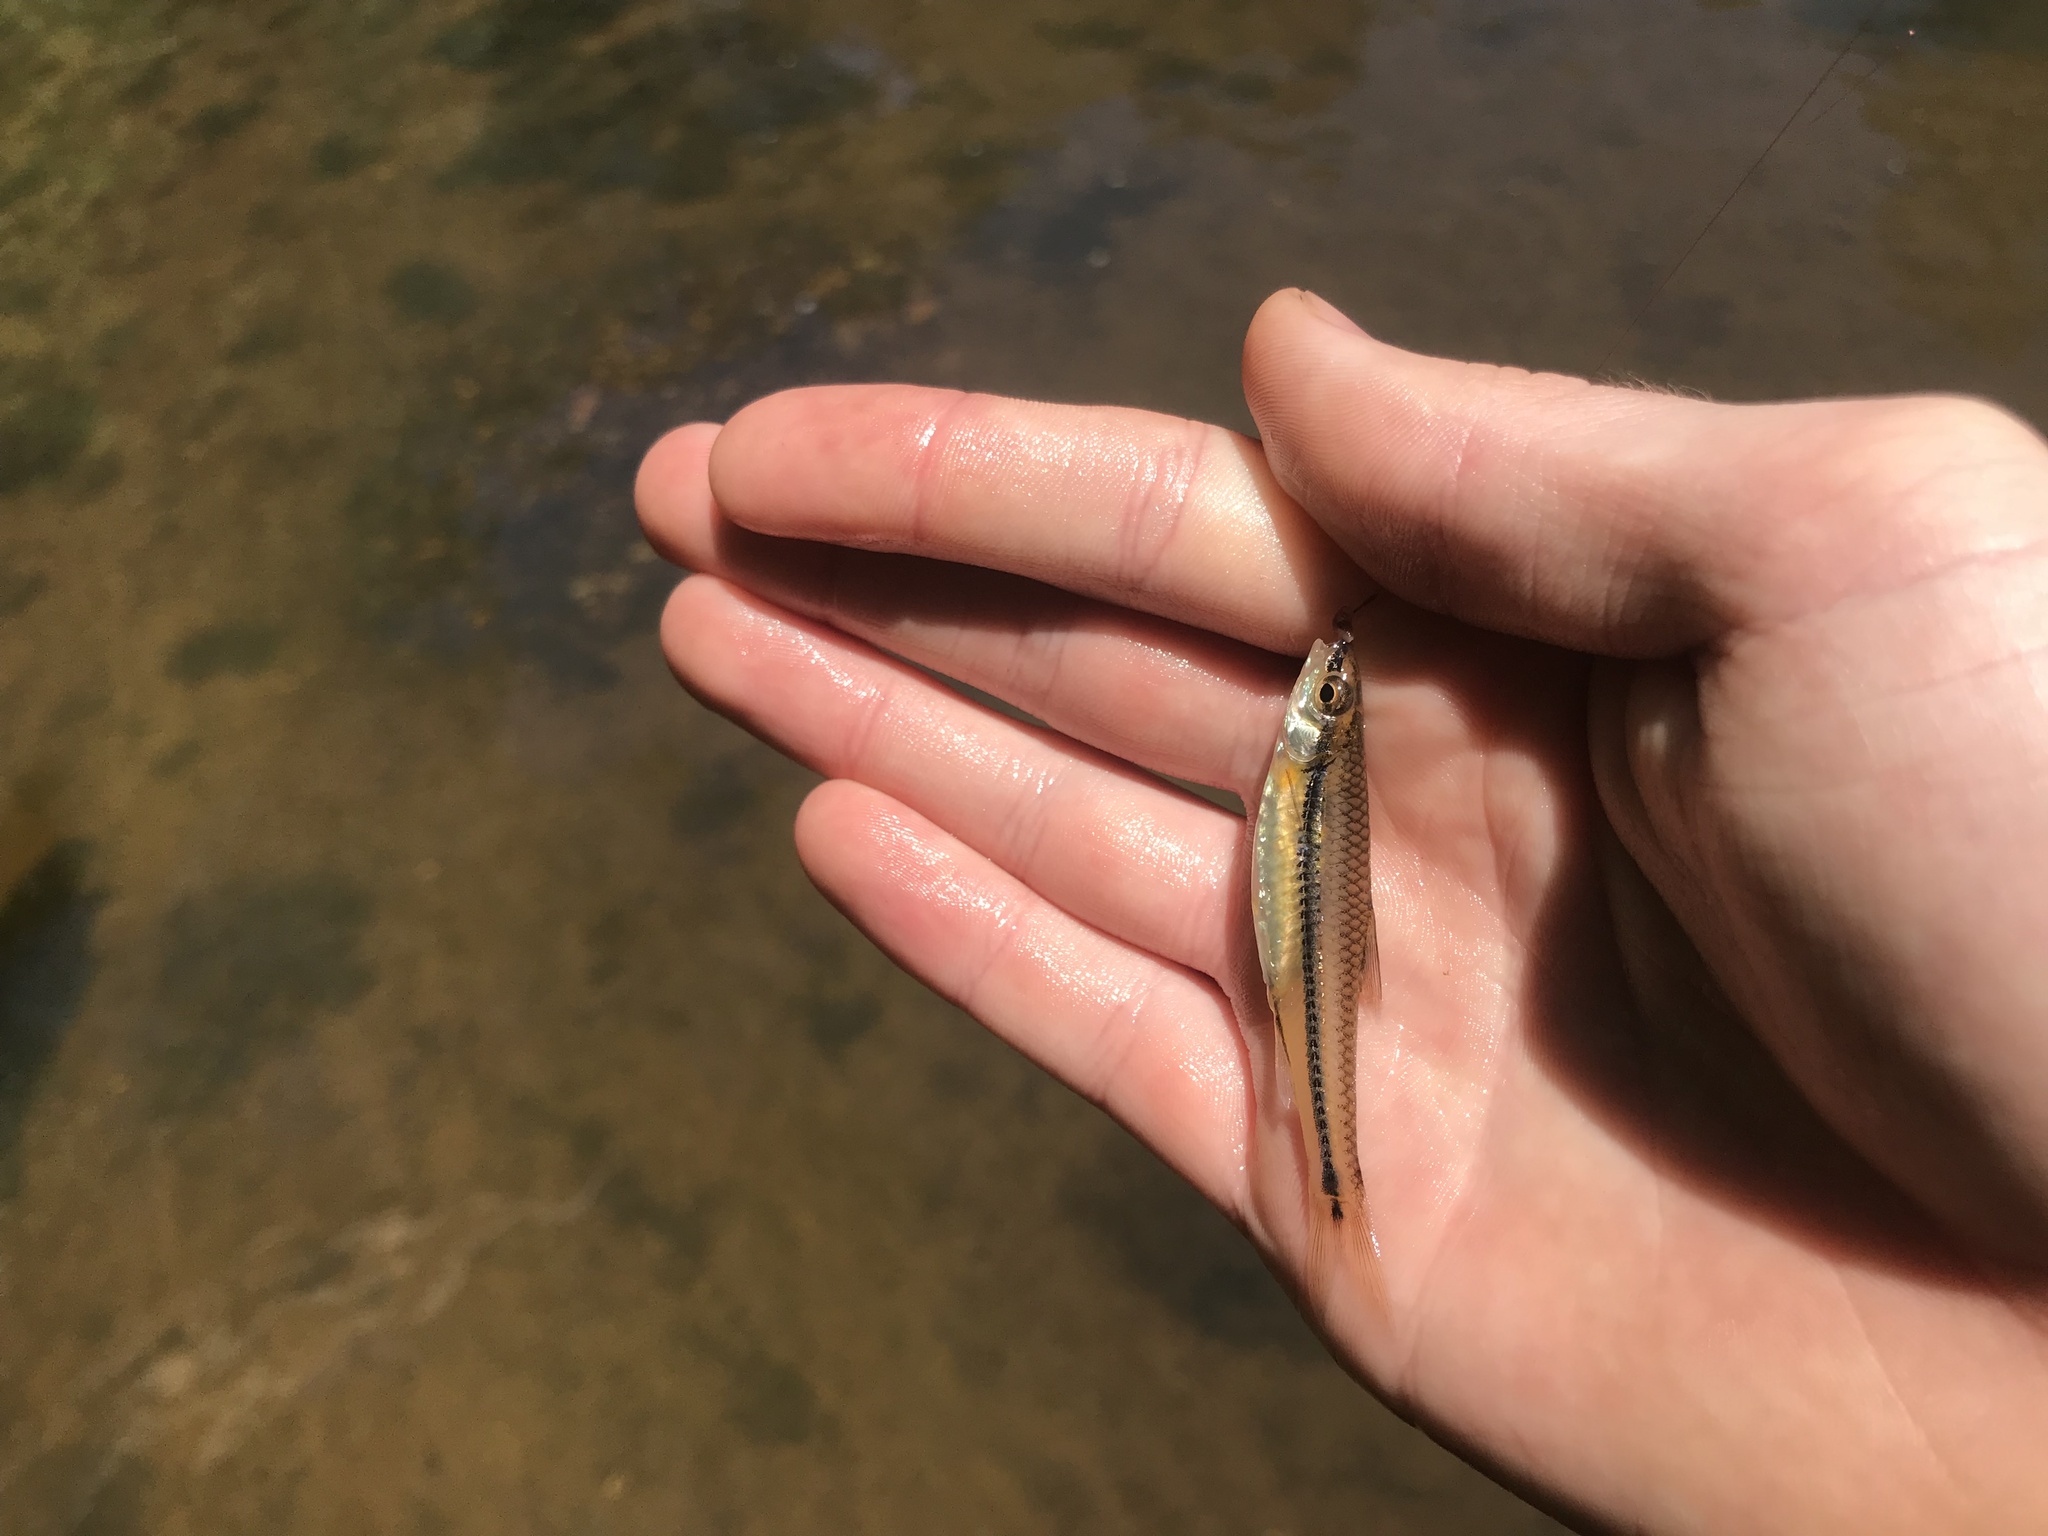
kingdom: Animalia
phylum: Chordata
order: Cypriniformes
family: Cyprinidae
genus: Notropis
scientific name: Notropis
